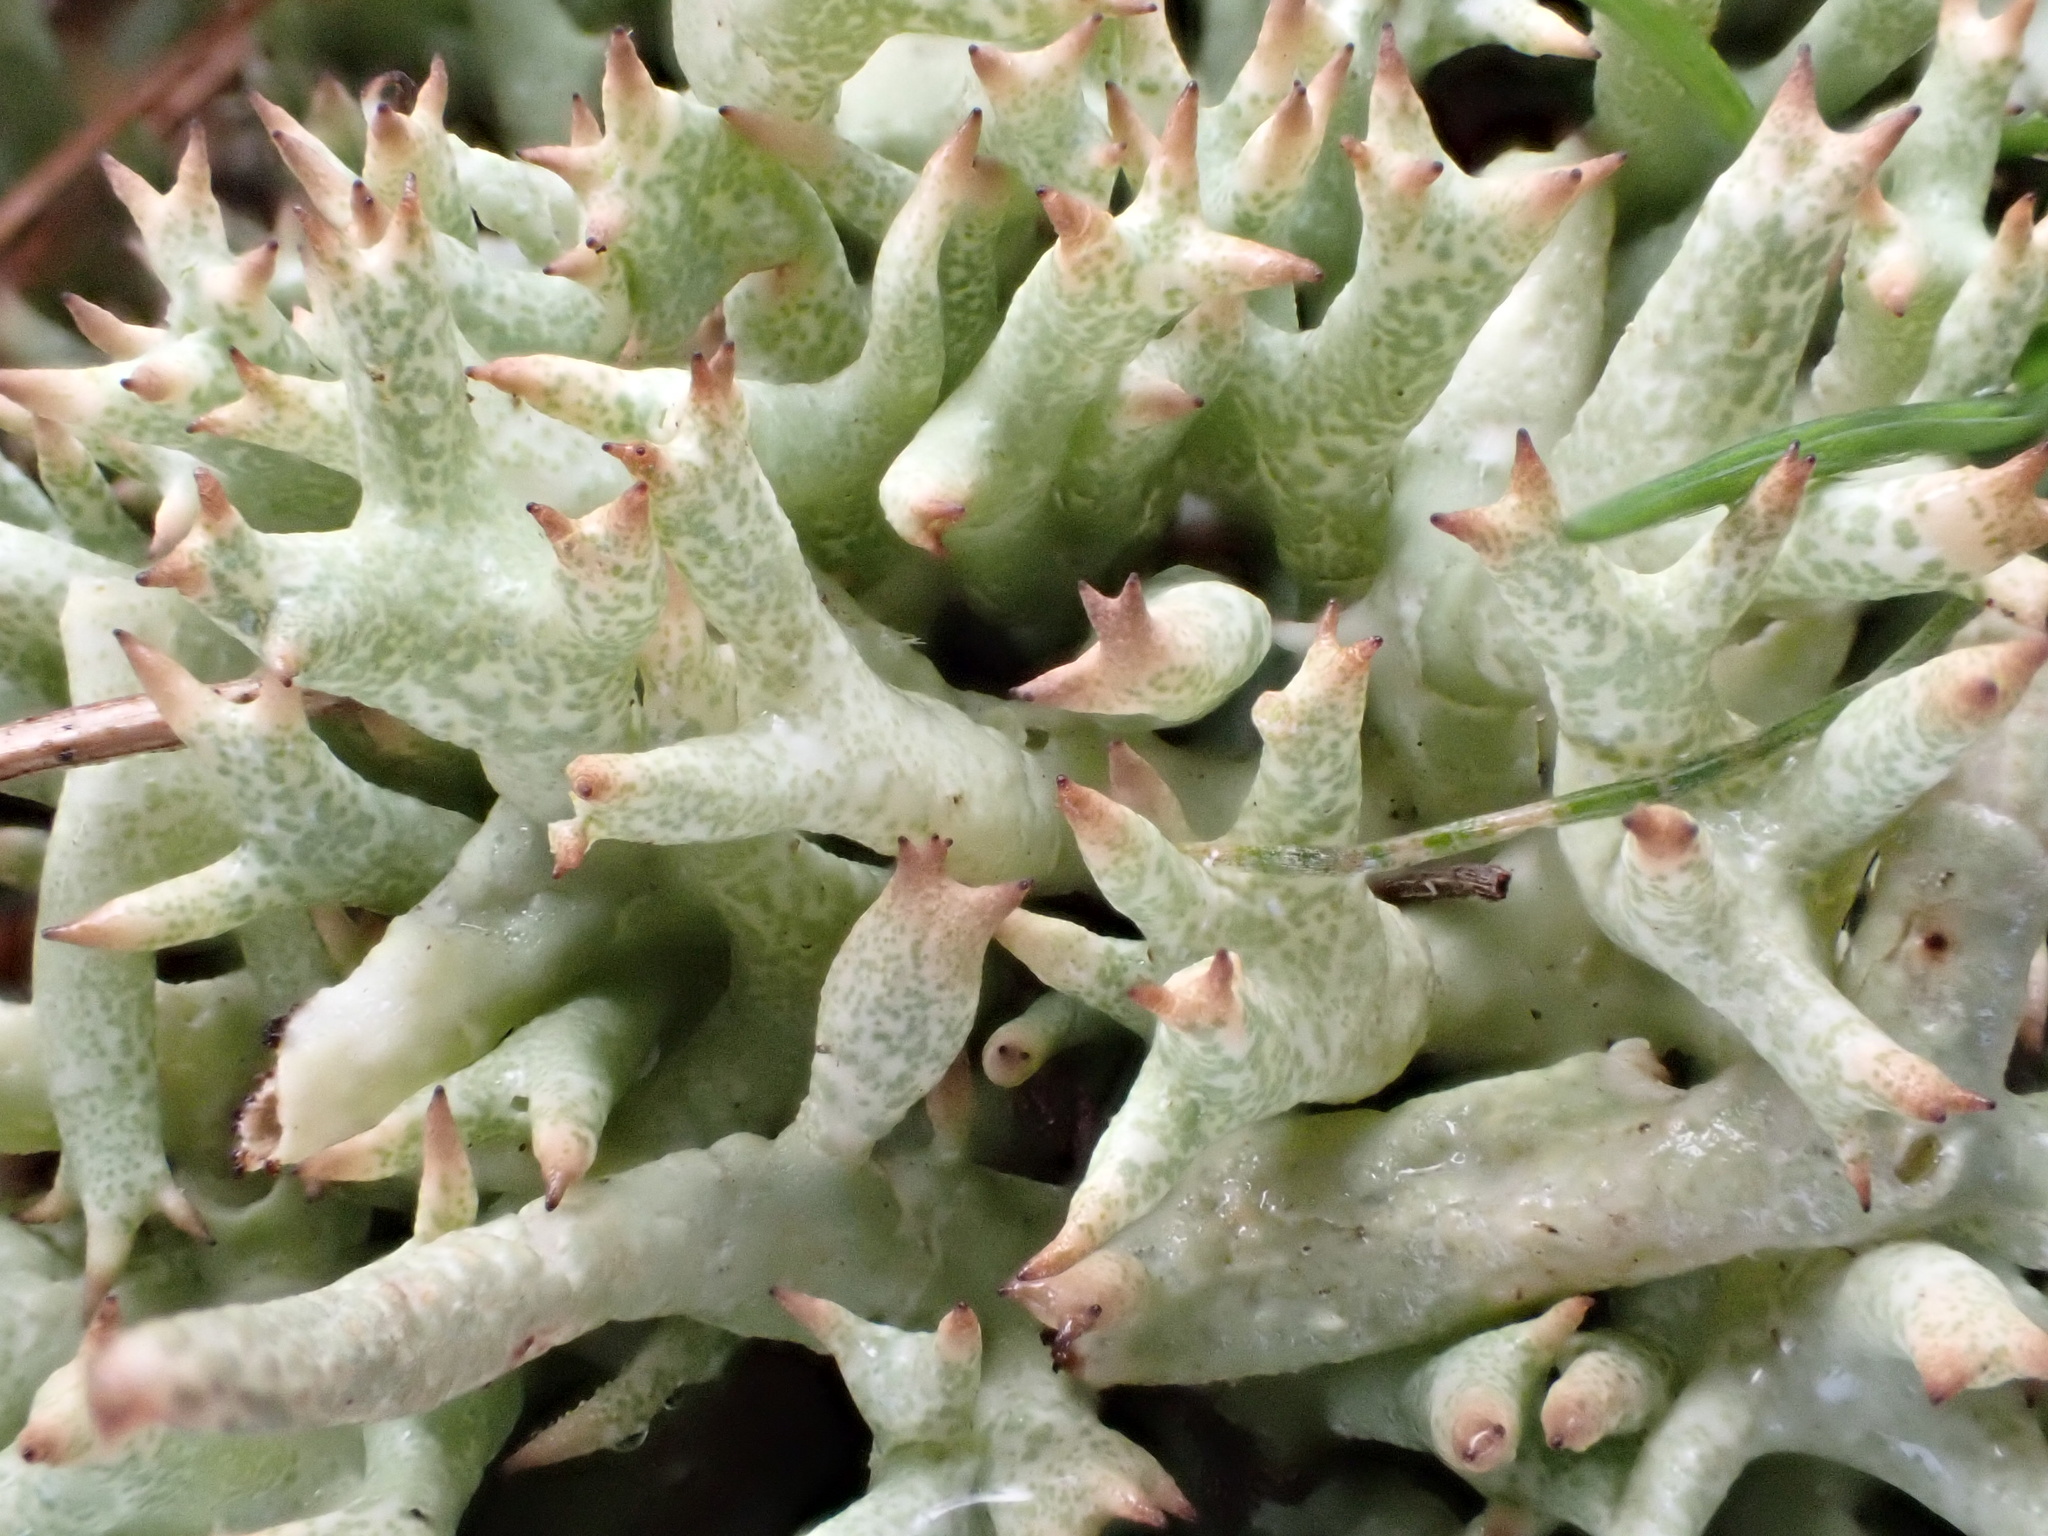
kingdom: Fungi
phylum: Ascomycota
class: Lecanoromycetes
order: Lecanorales
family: Cladoniaceae
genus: Cladonia
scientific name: Cladonia uncialis
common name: Thorn lichen
